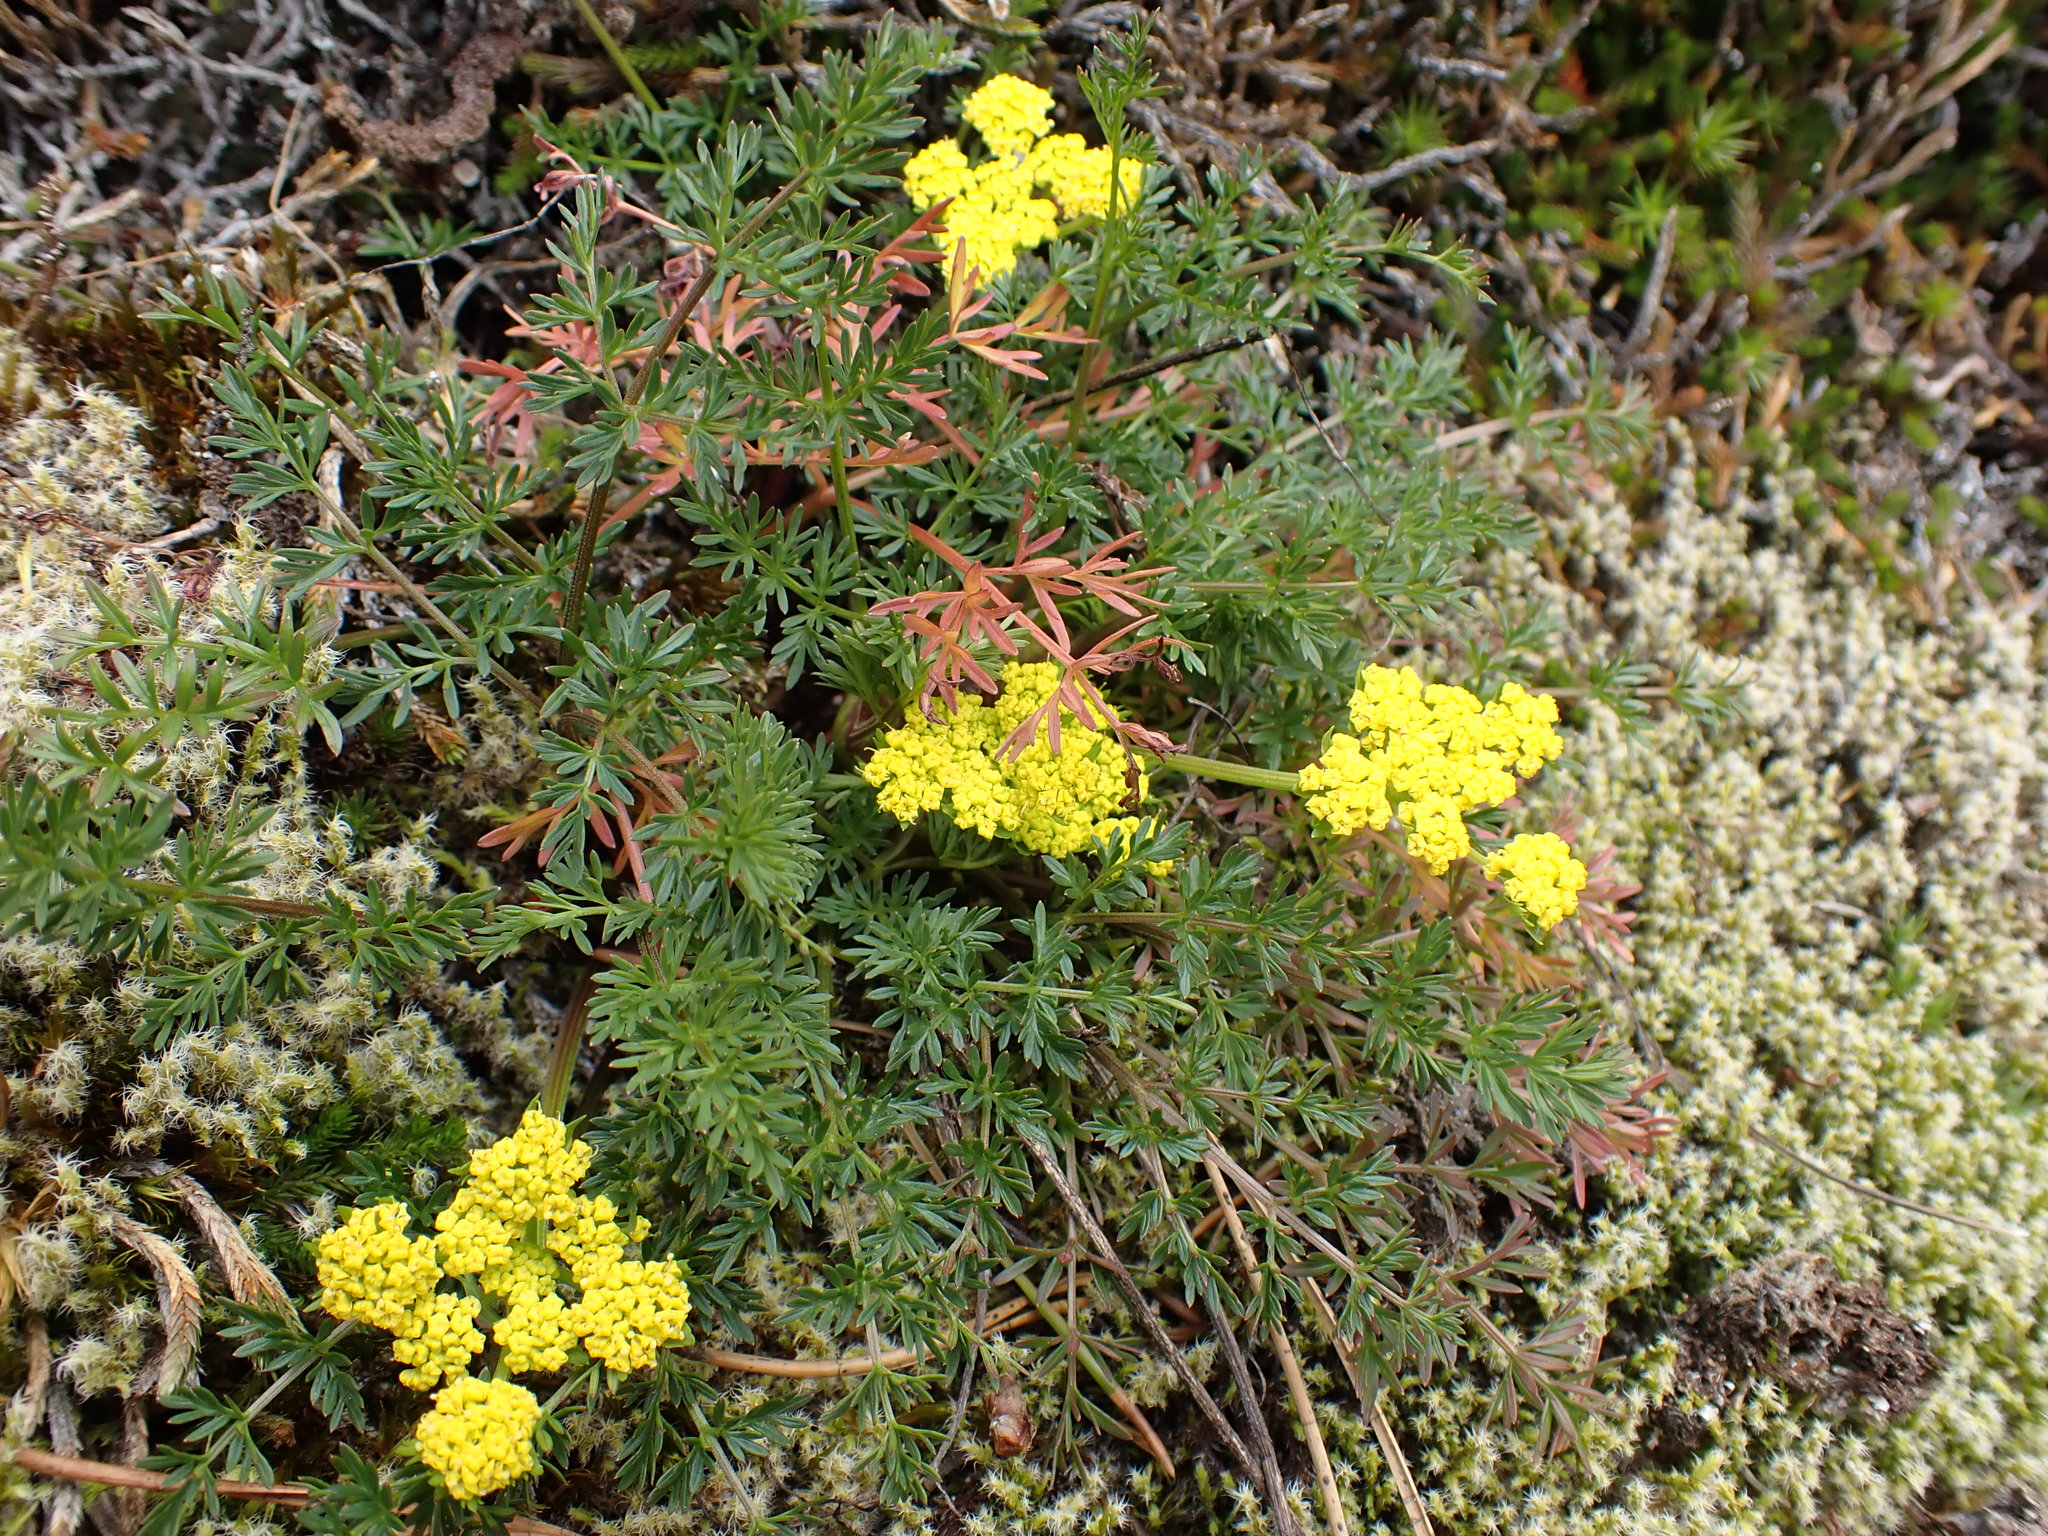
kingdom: Plantae
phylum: Tracheophyta
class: Magnoliopsida
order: Apiales
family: Apiaceae
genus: Lomatium
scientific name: Lomatium utriculatum
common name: Fine-leaf desert-parsley
